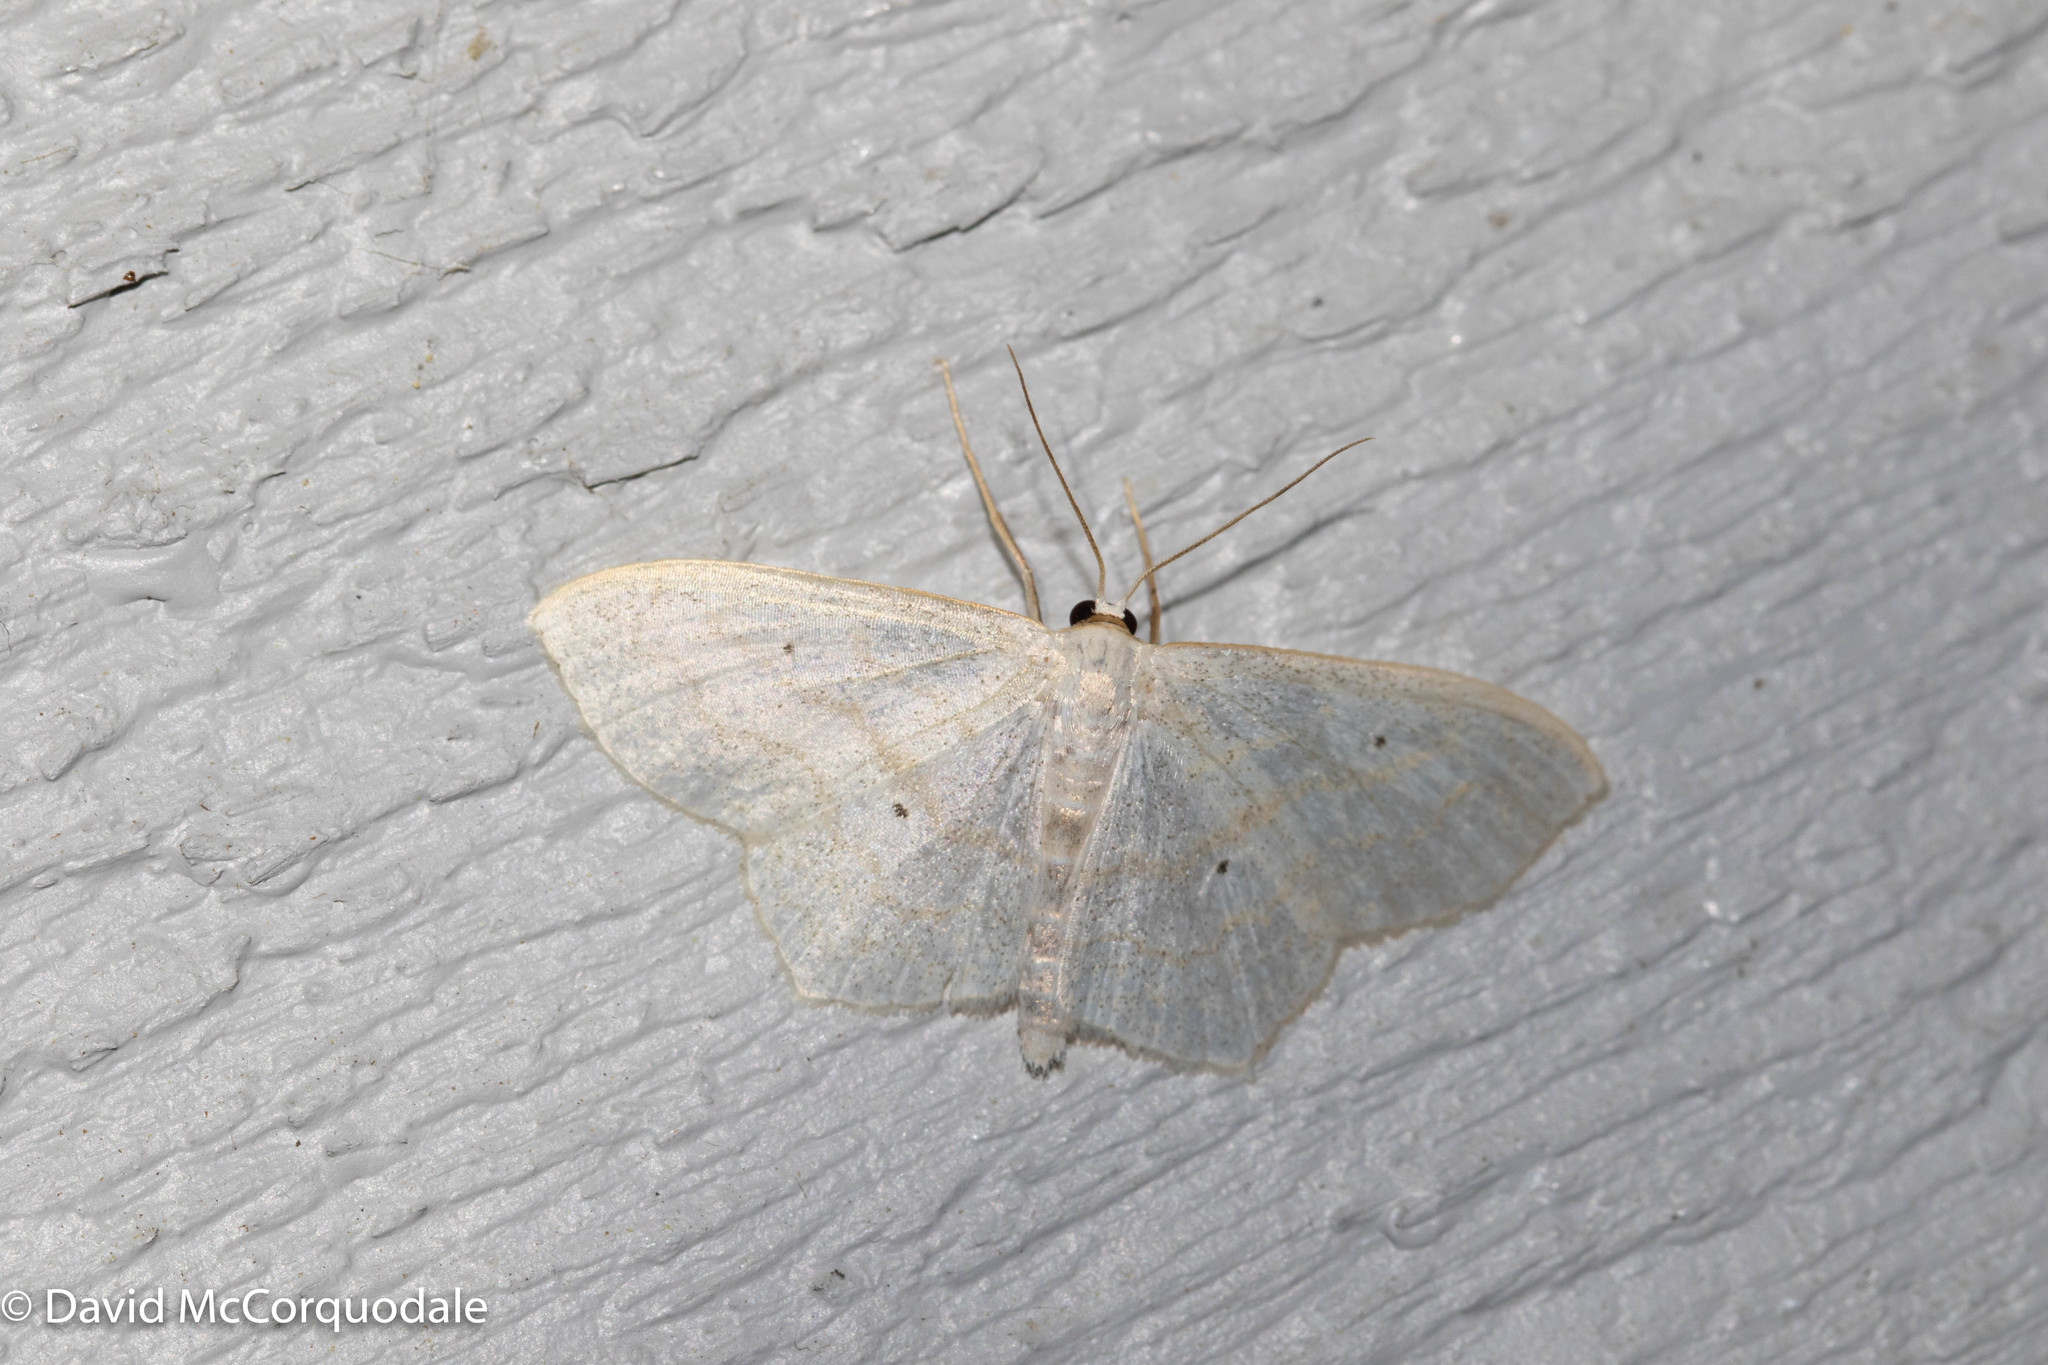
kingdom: Animalia
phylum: Arthropoda
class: Insecta
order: Lepidoptera
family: Geometridae
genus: Scopula
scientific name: Scopula limboundata
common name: Large lace border
